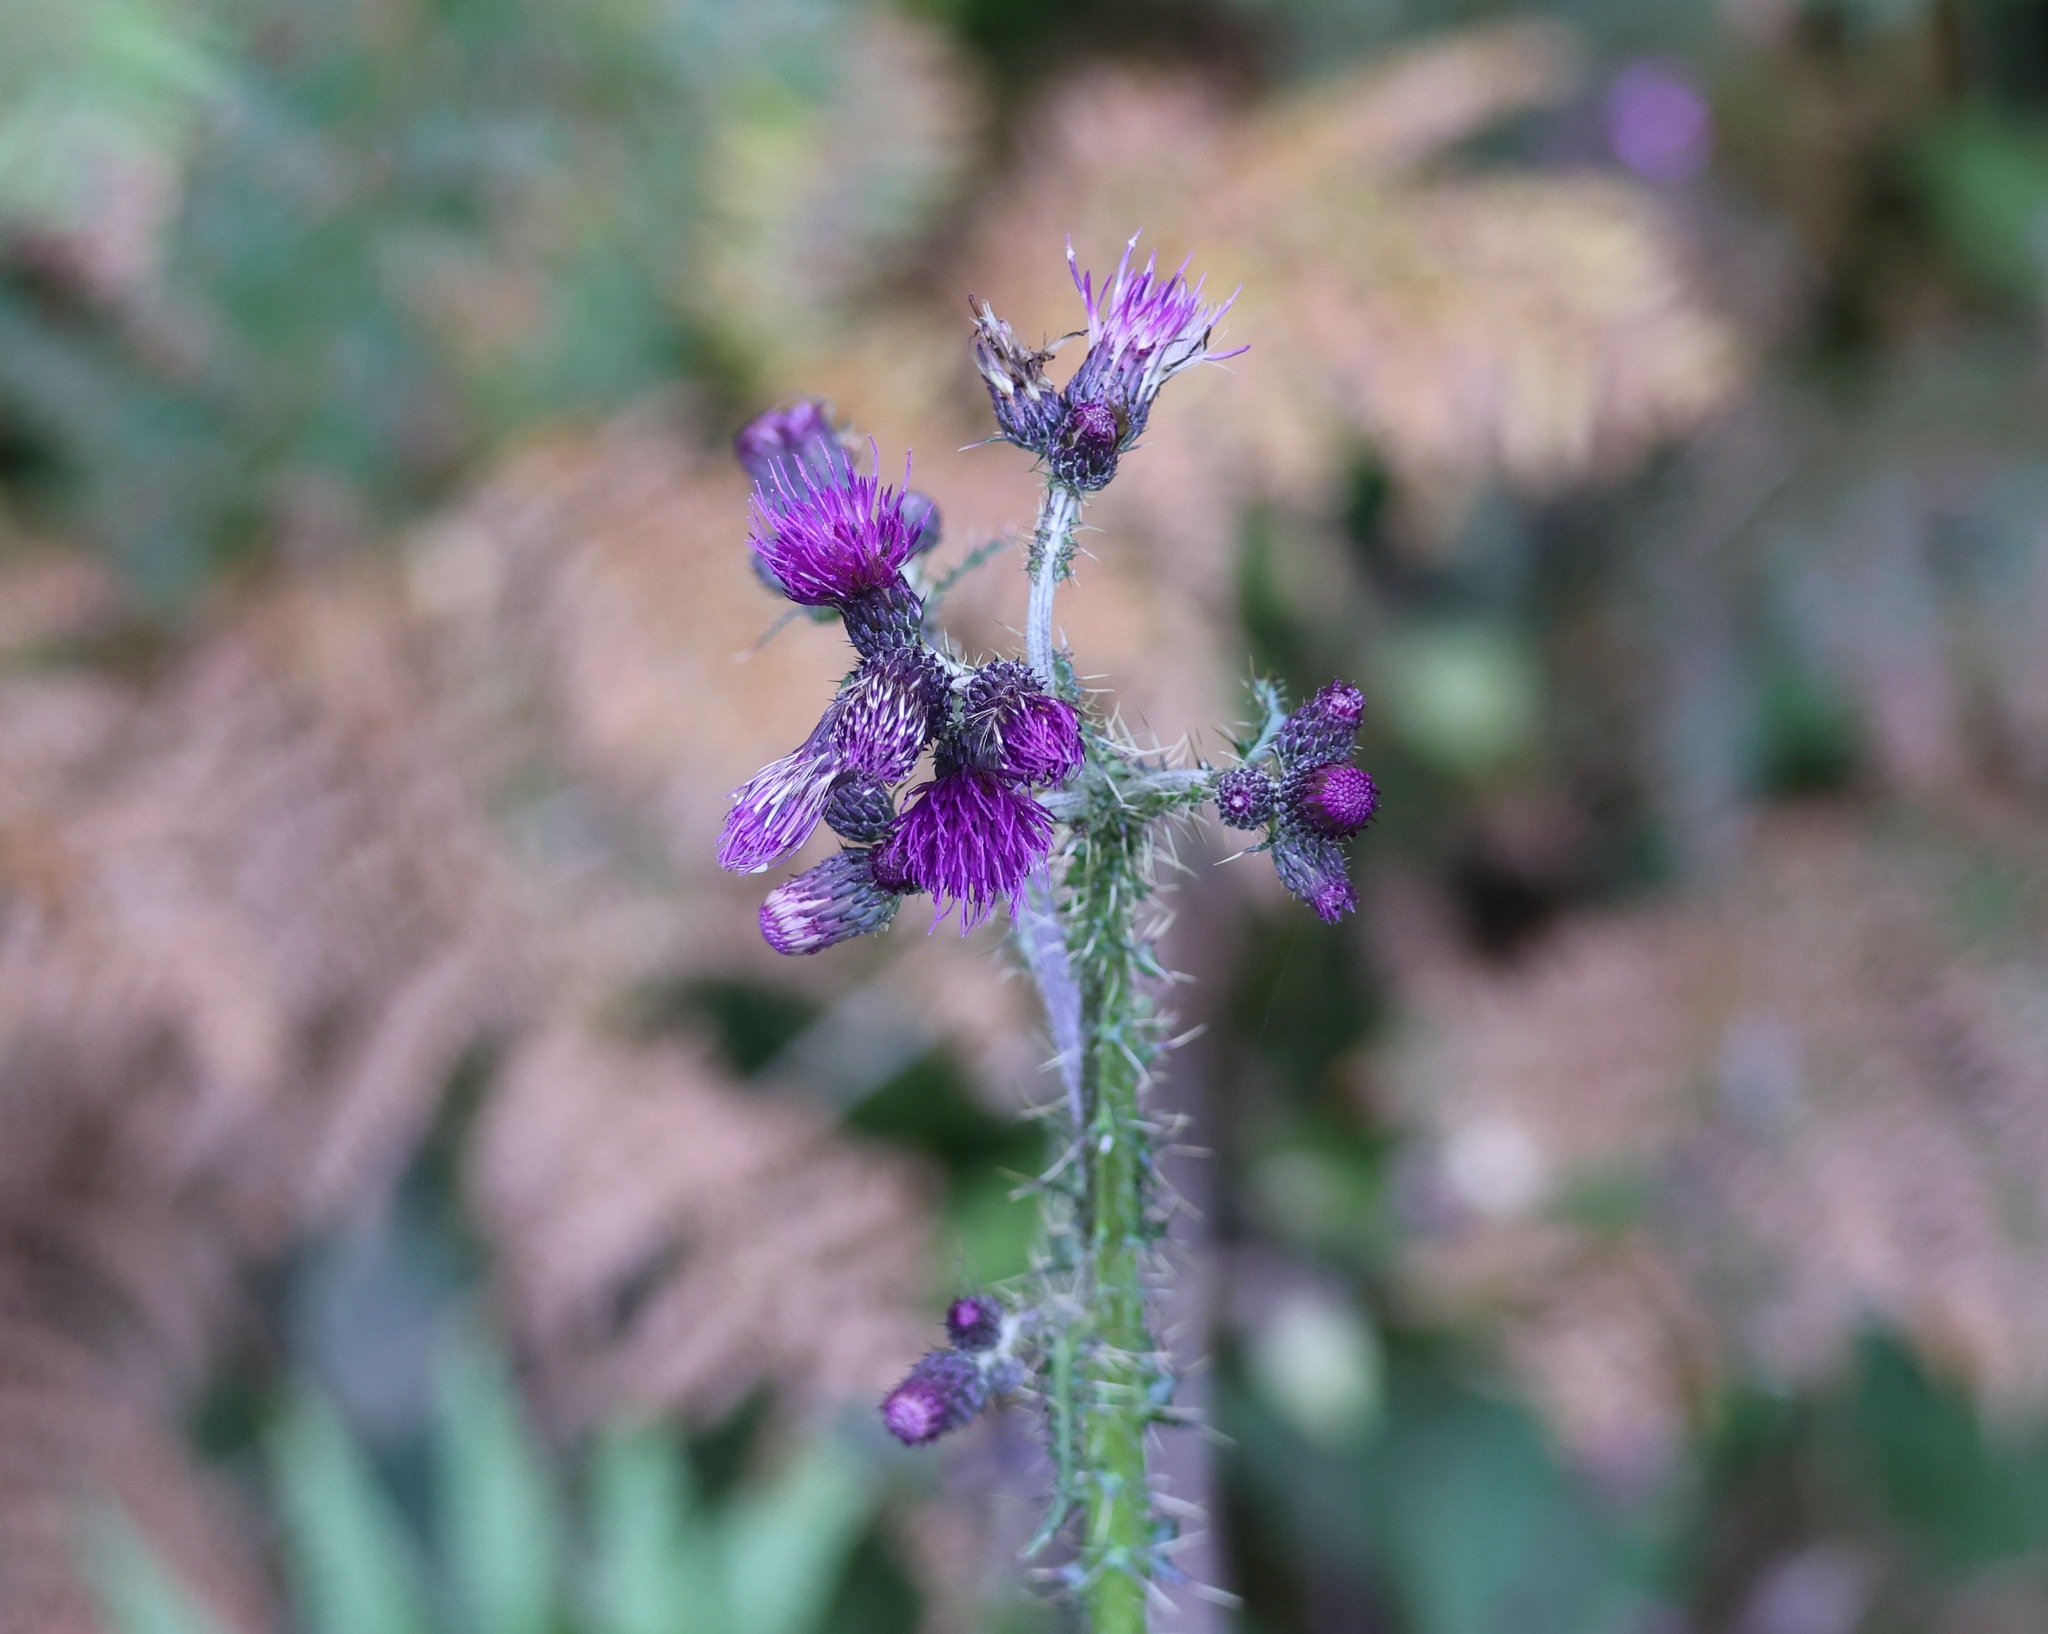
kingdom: Plantae
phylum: Tracheophyta
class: Magnoliopsida
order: Asterales
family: Asteraceae
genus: Cirsium
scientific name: Cirsium palustre
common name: Marsh thistle
